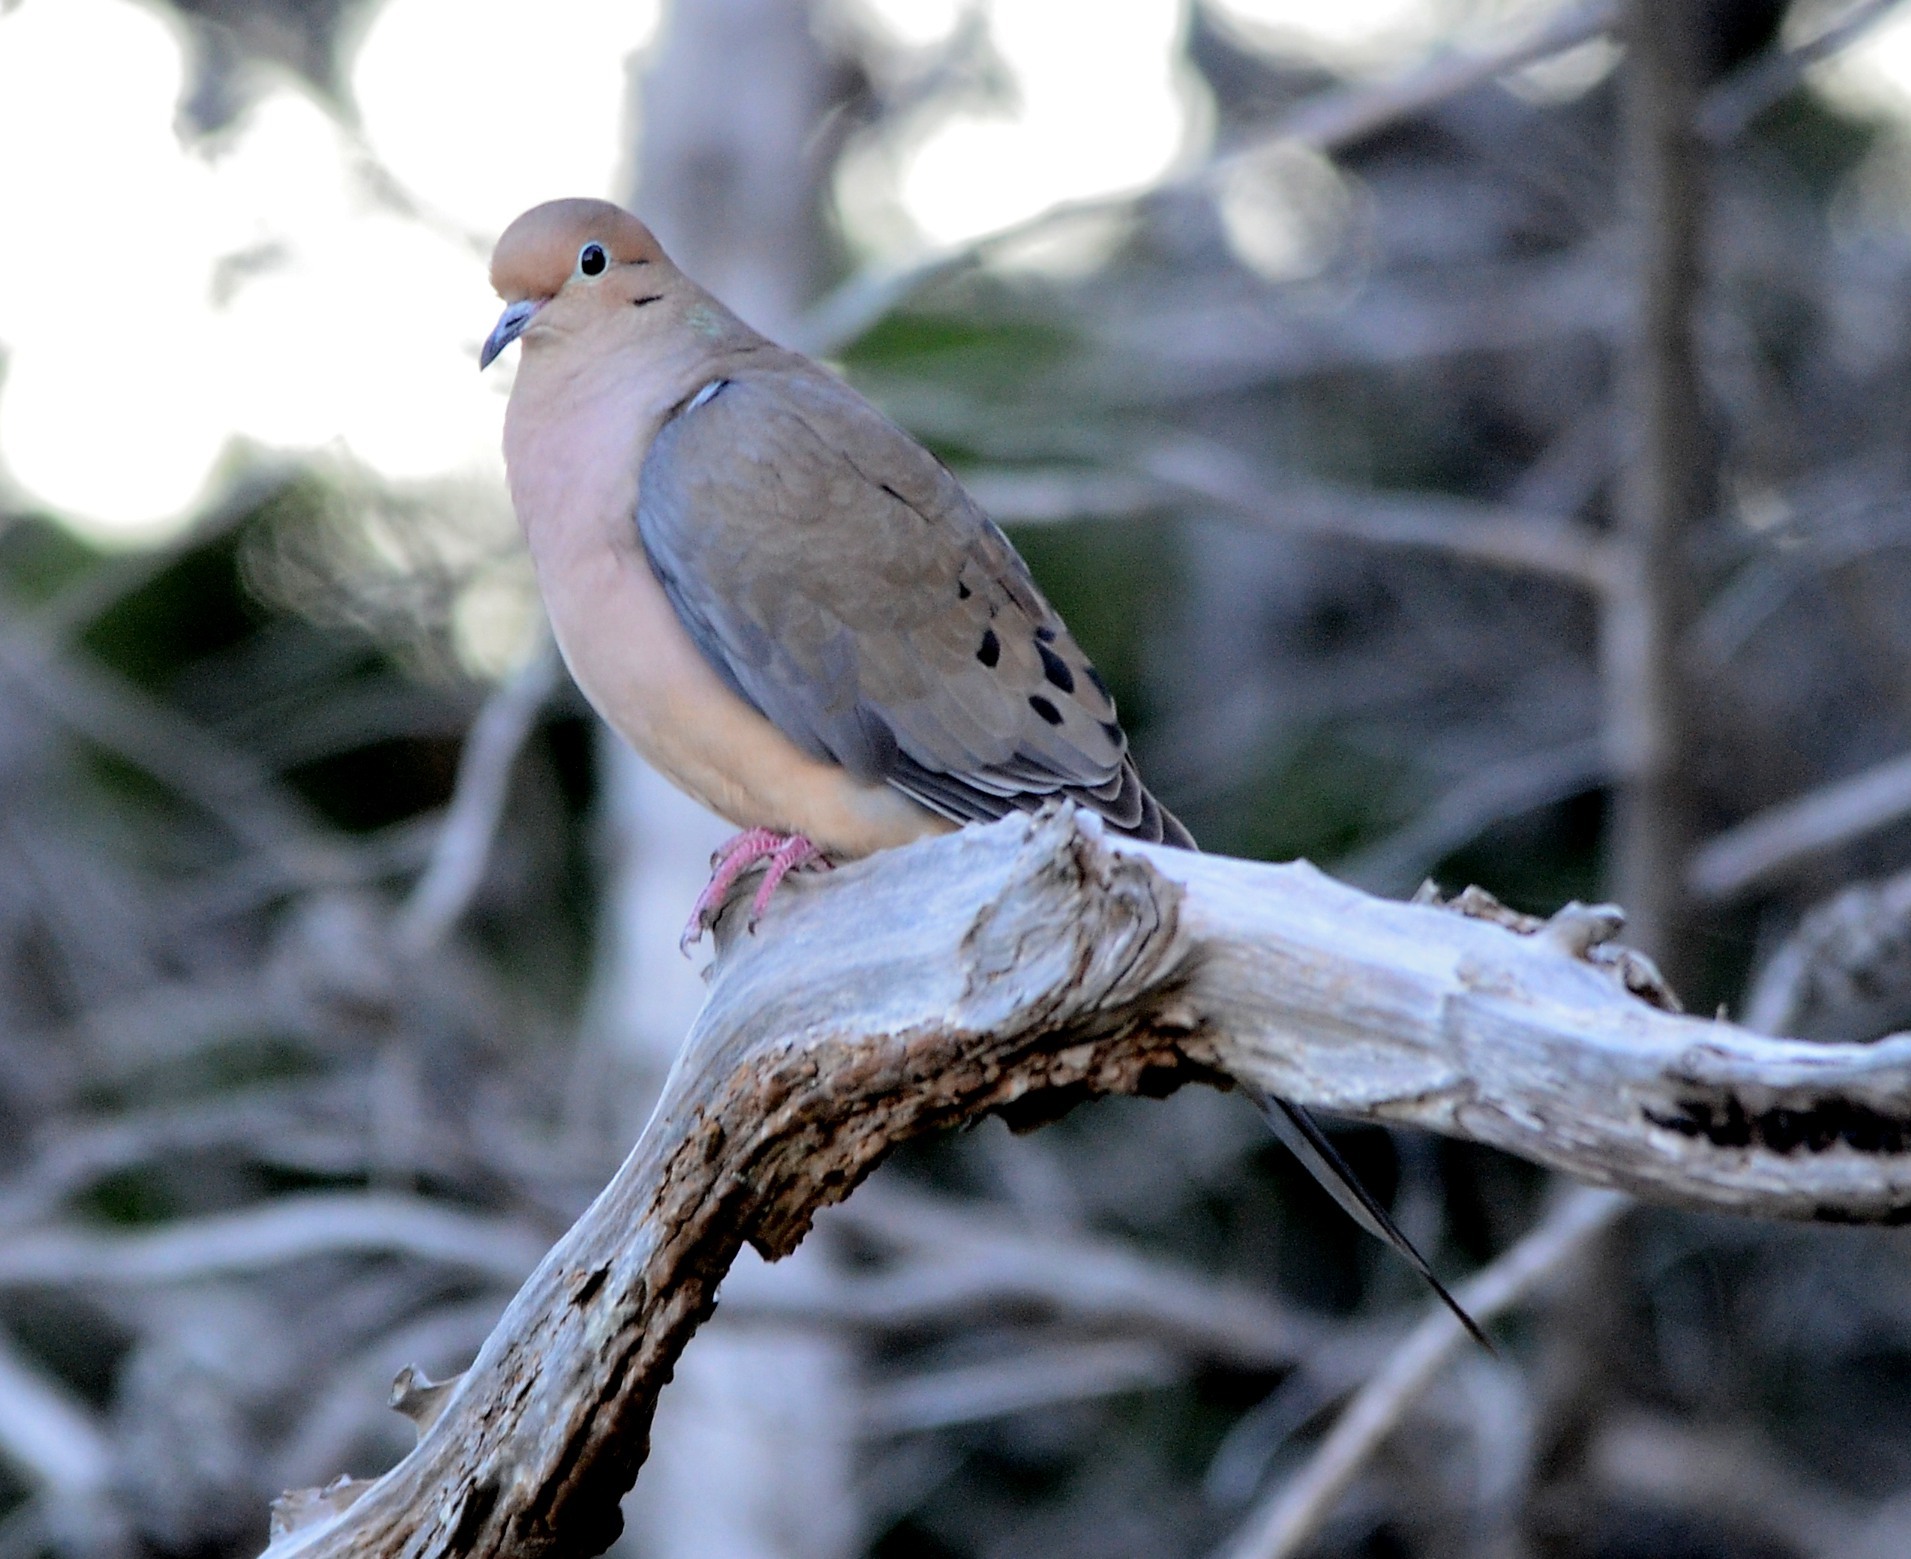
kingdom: Animalia
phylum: Chordata
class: Aves
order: Columbiformes
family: Columbidae
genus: Zenaida
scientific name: Zenaida macroura
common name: Mourning dove
